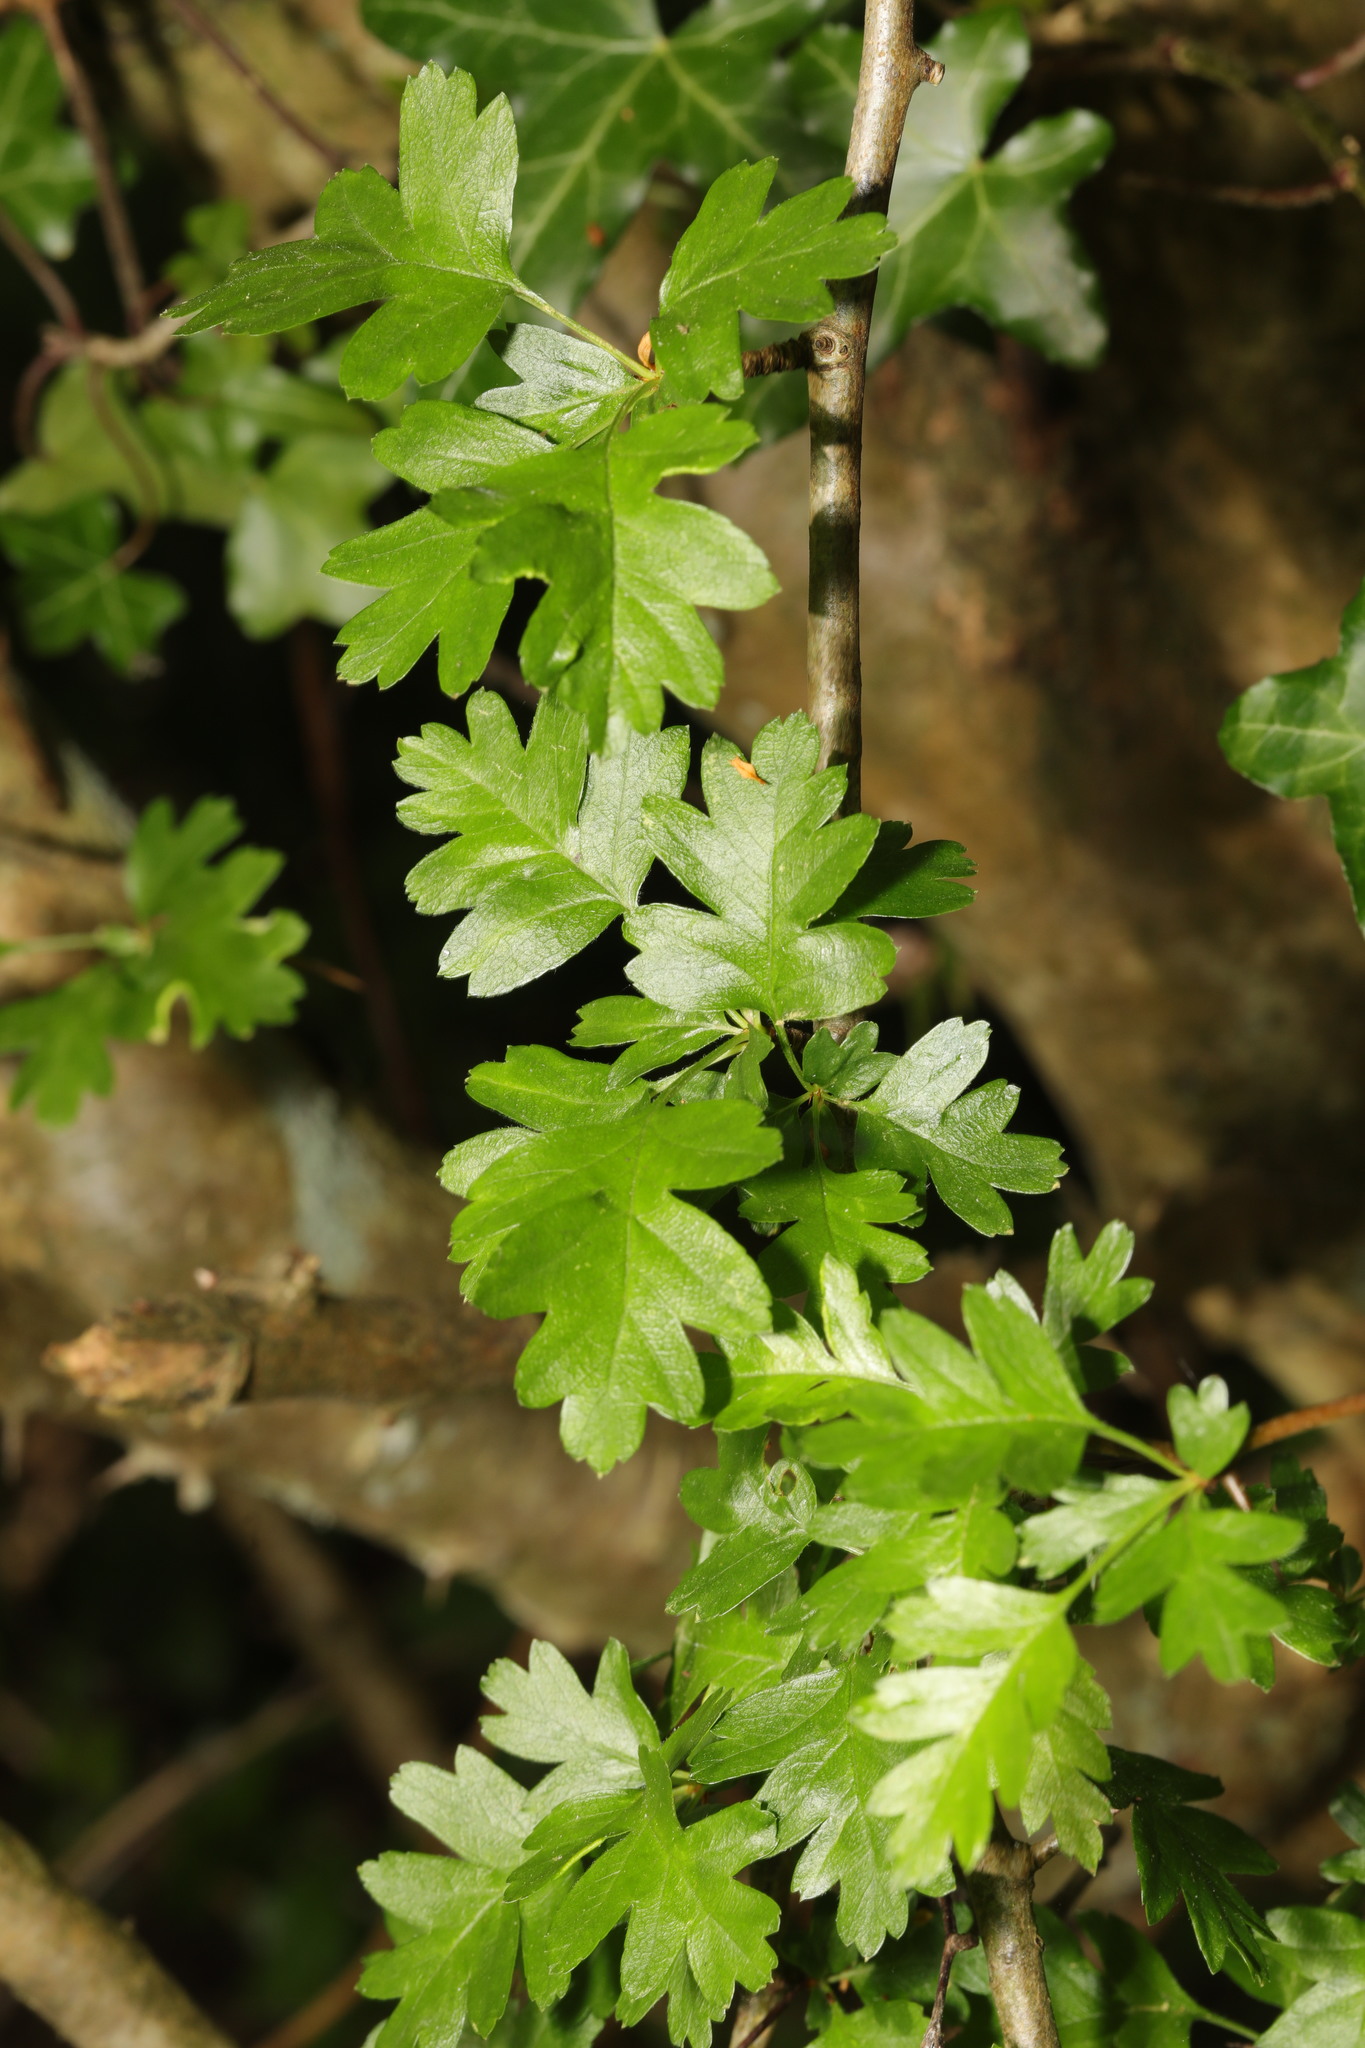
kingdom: Plantae
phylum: Tracheophyta
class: Magnoliopsida
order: Rosales
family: Rosaceae
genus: Crataegus
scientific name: Crataegus monogyna
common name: Hawthorn
